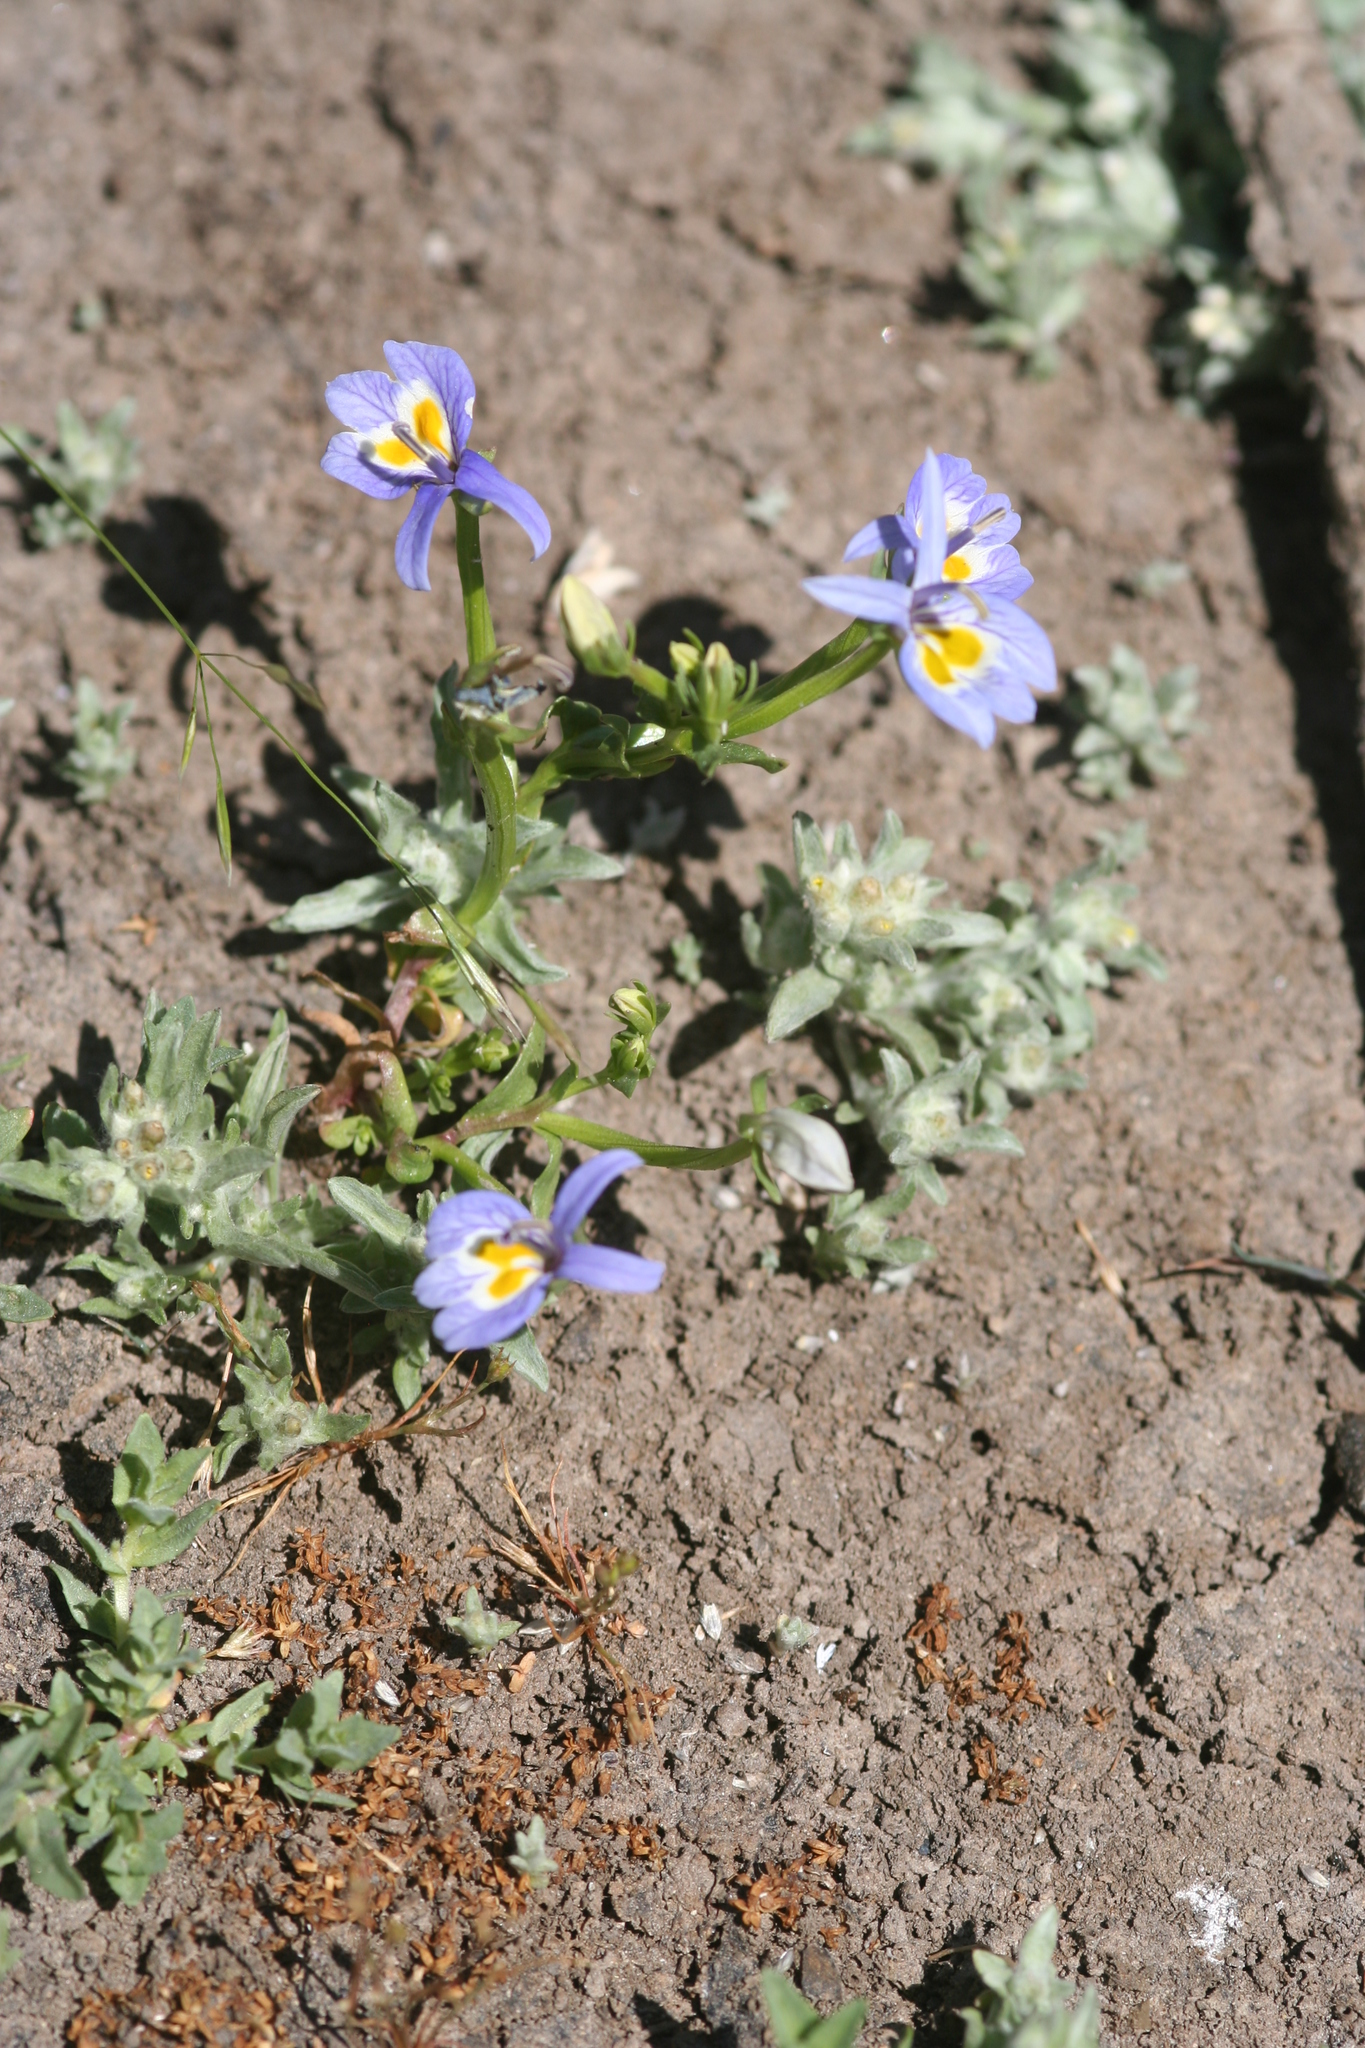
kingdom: Plantae
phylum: Tracheophyta
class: Magnoliopsida
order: Asterales
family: Campanulaceae
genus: Downingia
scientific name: Downingia bacigalupii
